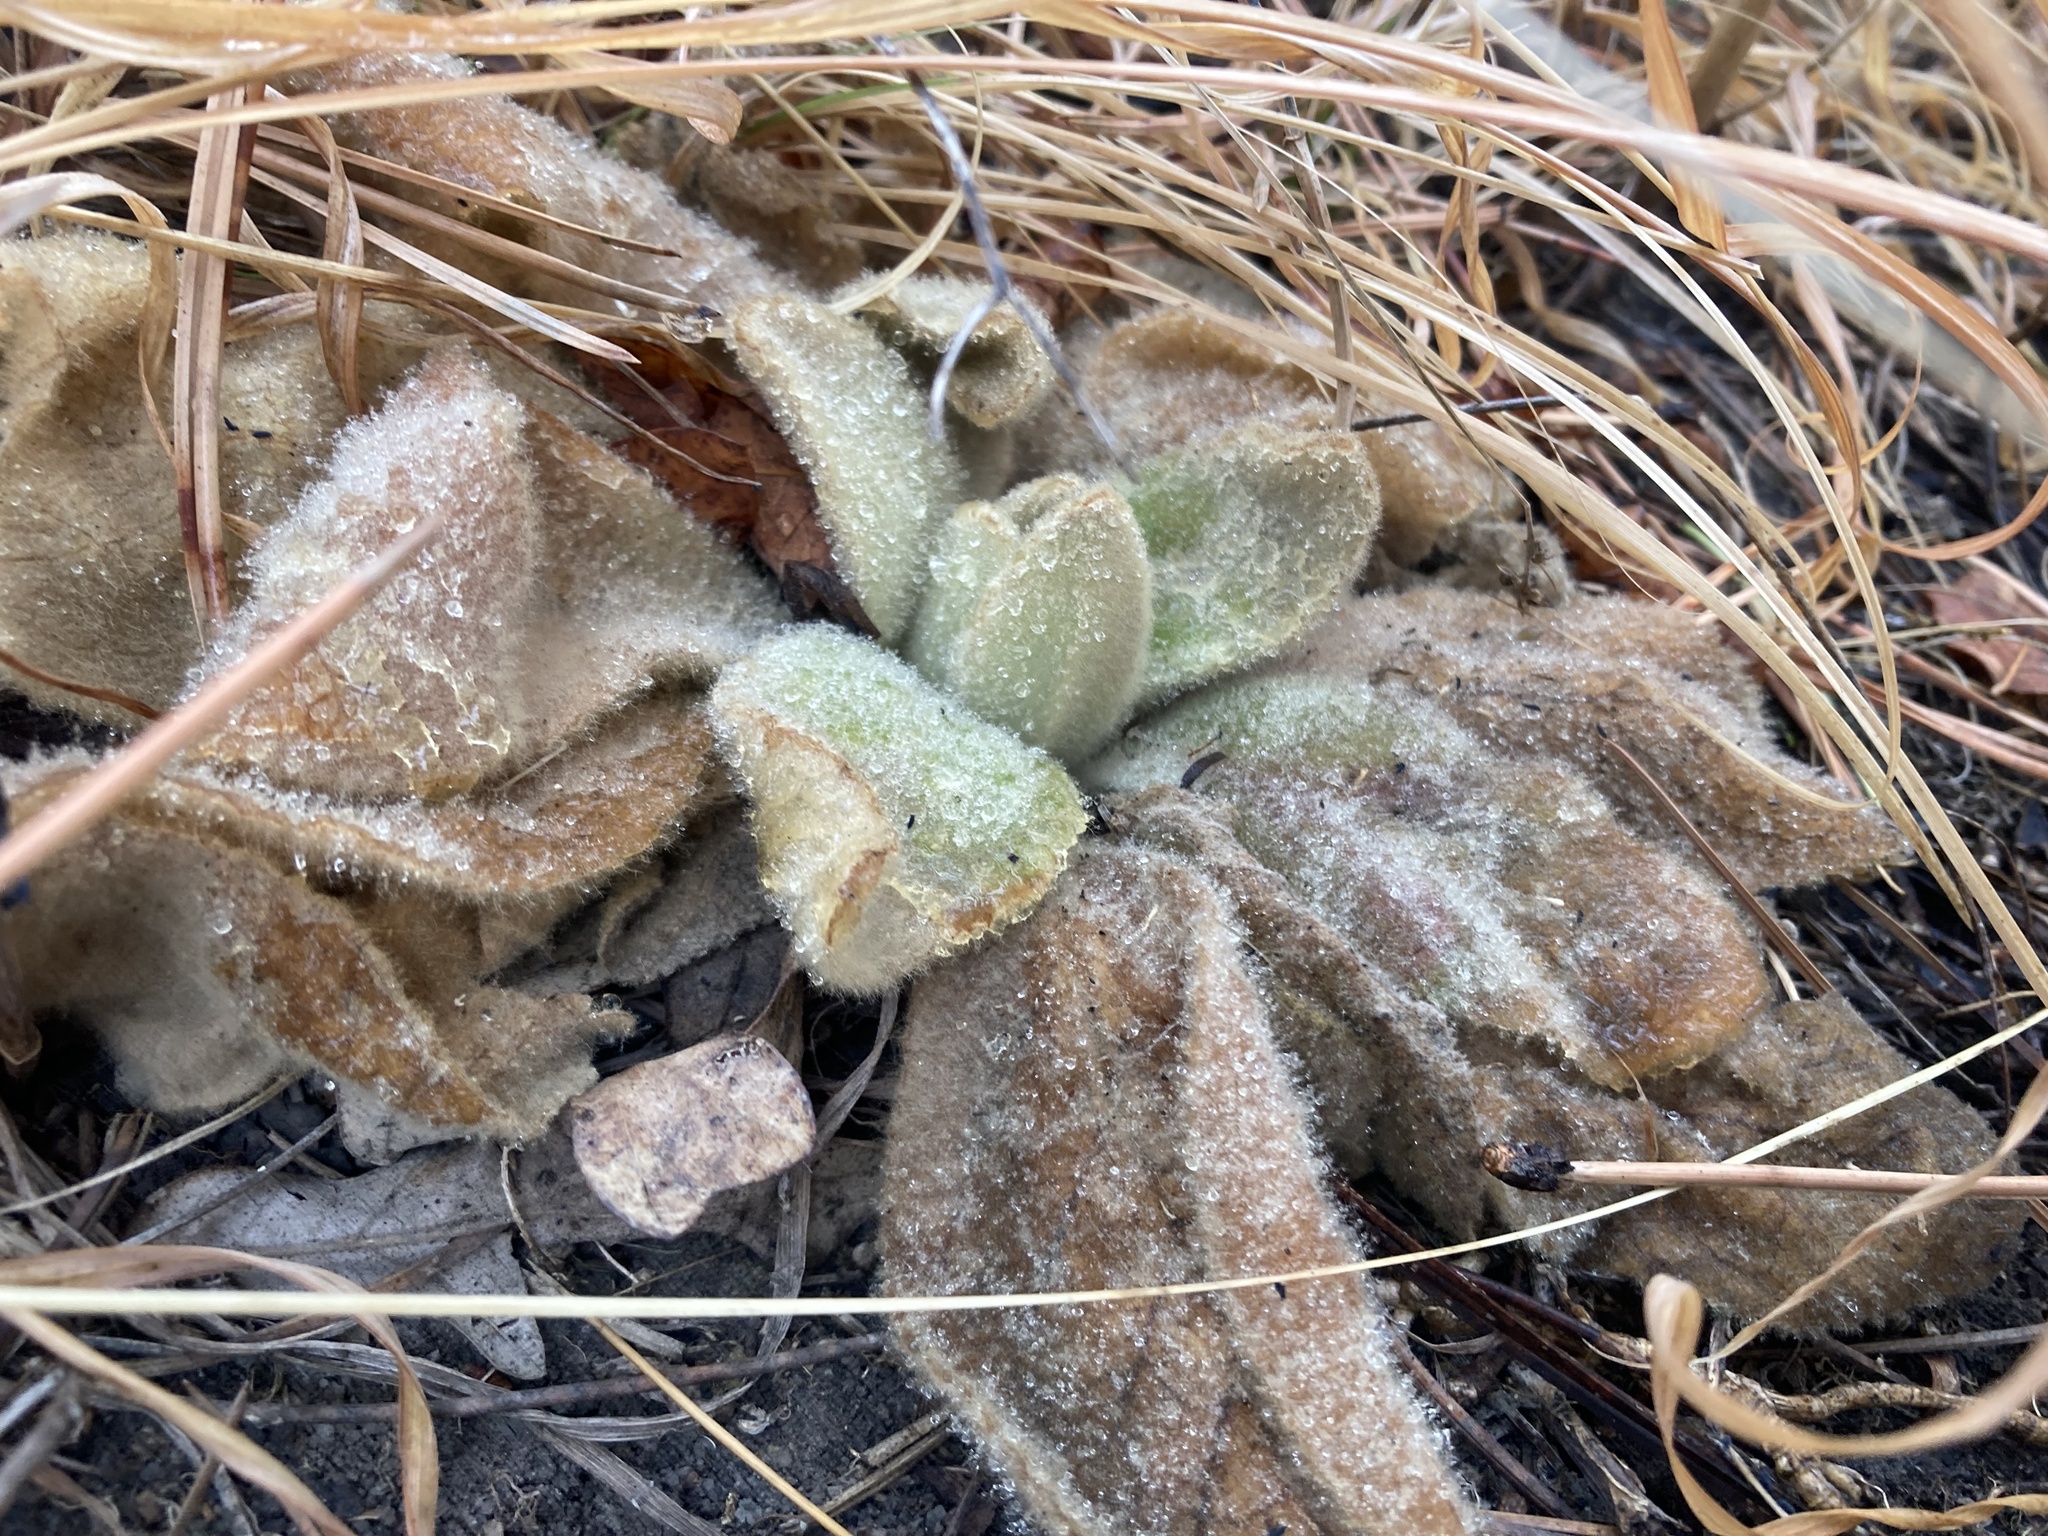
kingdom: Plantae
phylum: Tracheophyta
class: Magnoliopsida
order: Lamiales
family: Scrophulariaceae
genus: Verbascum
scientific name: Verbascum thapsus
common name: Common mullein
